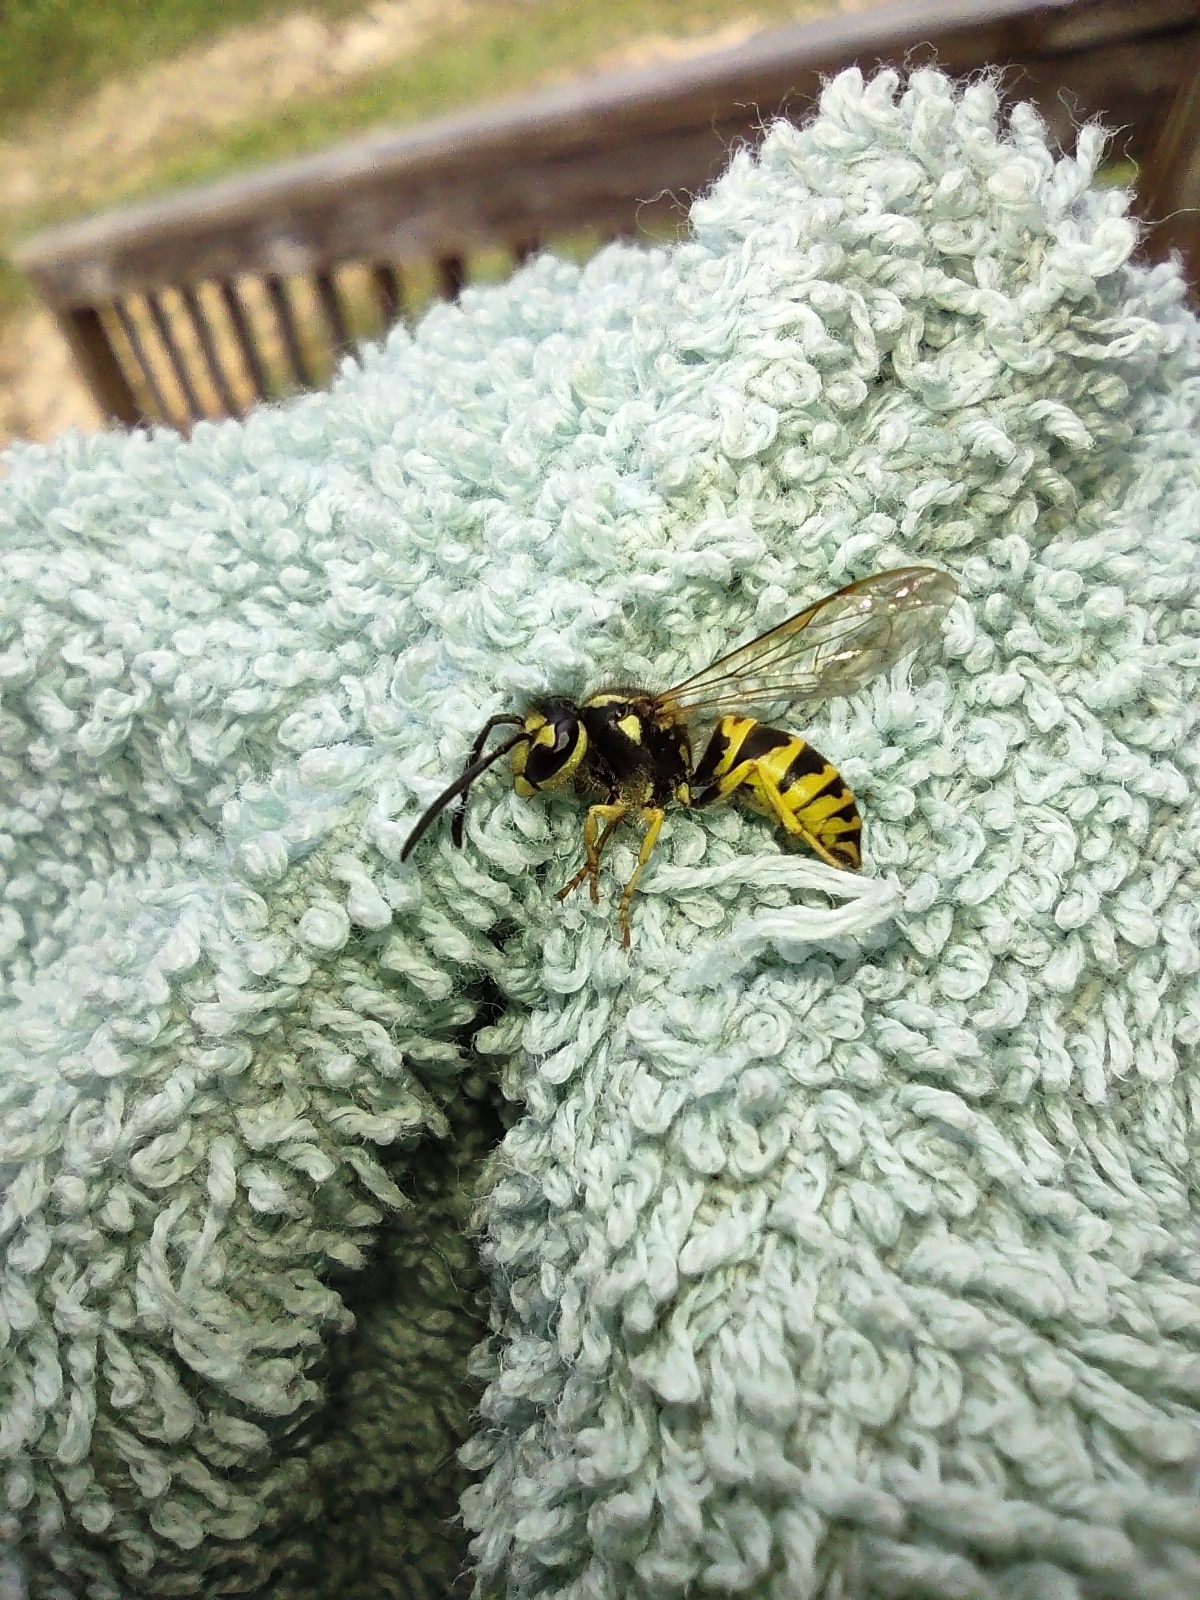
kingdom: Animalia
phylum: Arthropoda
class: Insecta
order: Hymenoptera
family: Vespidae
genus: Vespula
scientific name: Vespula maculifrons
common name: Eastern yellowjacket
